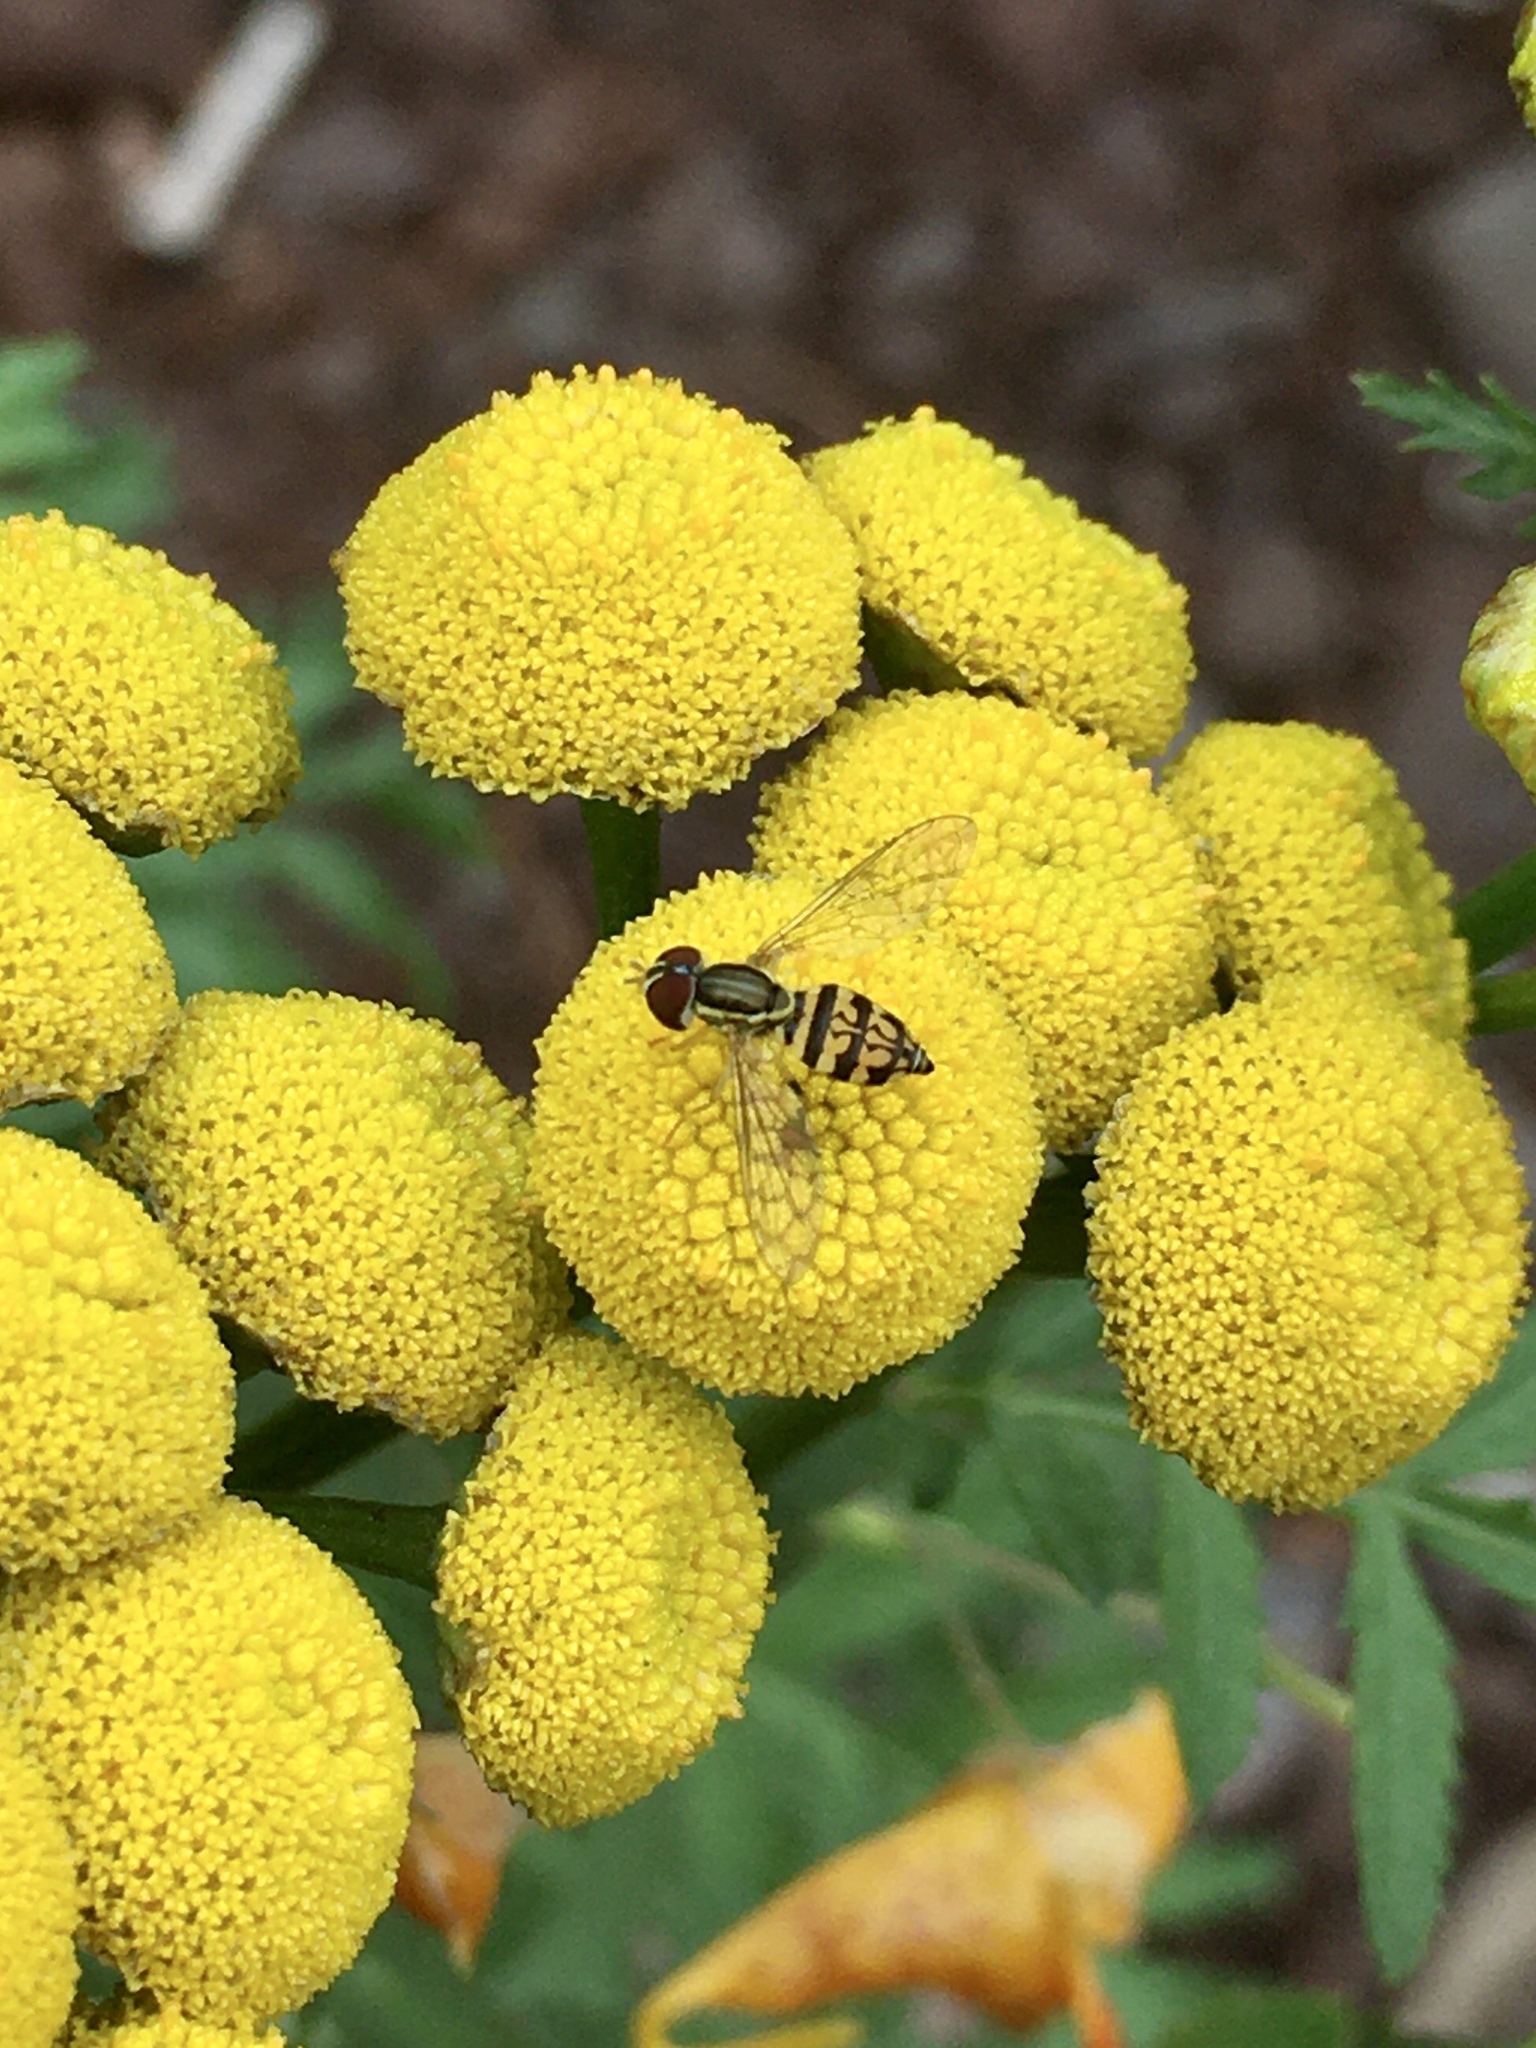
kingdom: Animalia
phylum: Arthropoda
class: Insecta
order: Diptera
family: Syrphidae
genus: Toxomerus
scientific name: Toxomerus geminatus
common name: Eastern calligrapher
